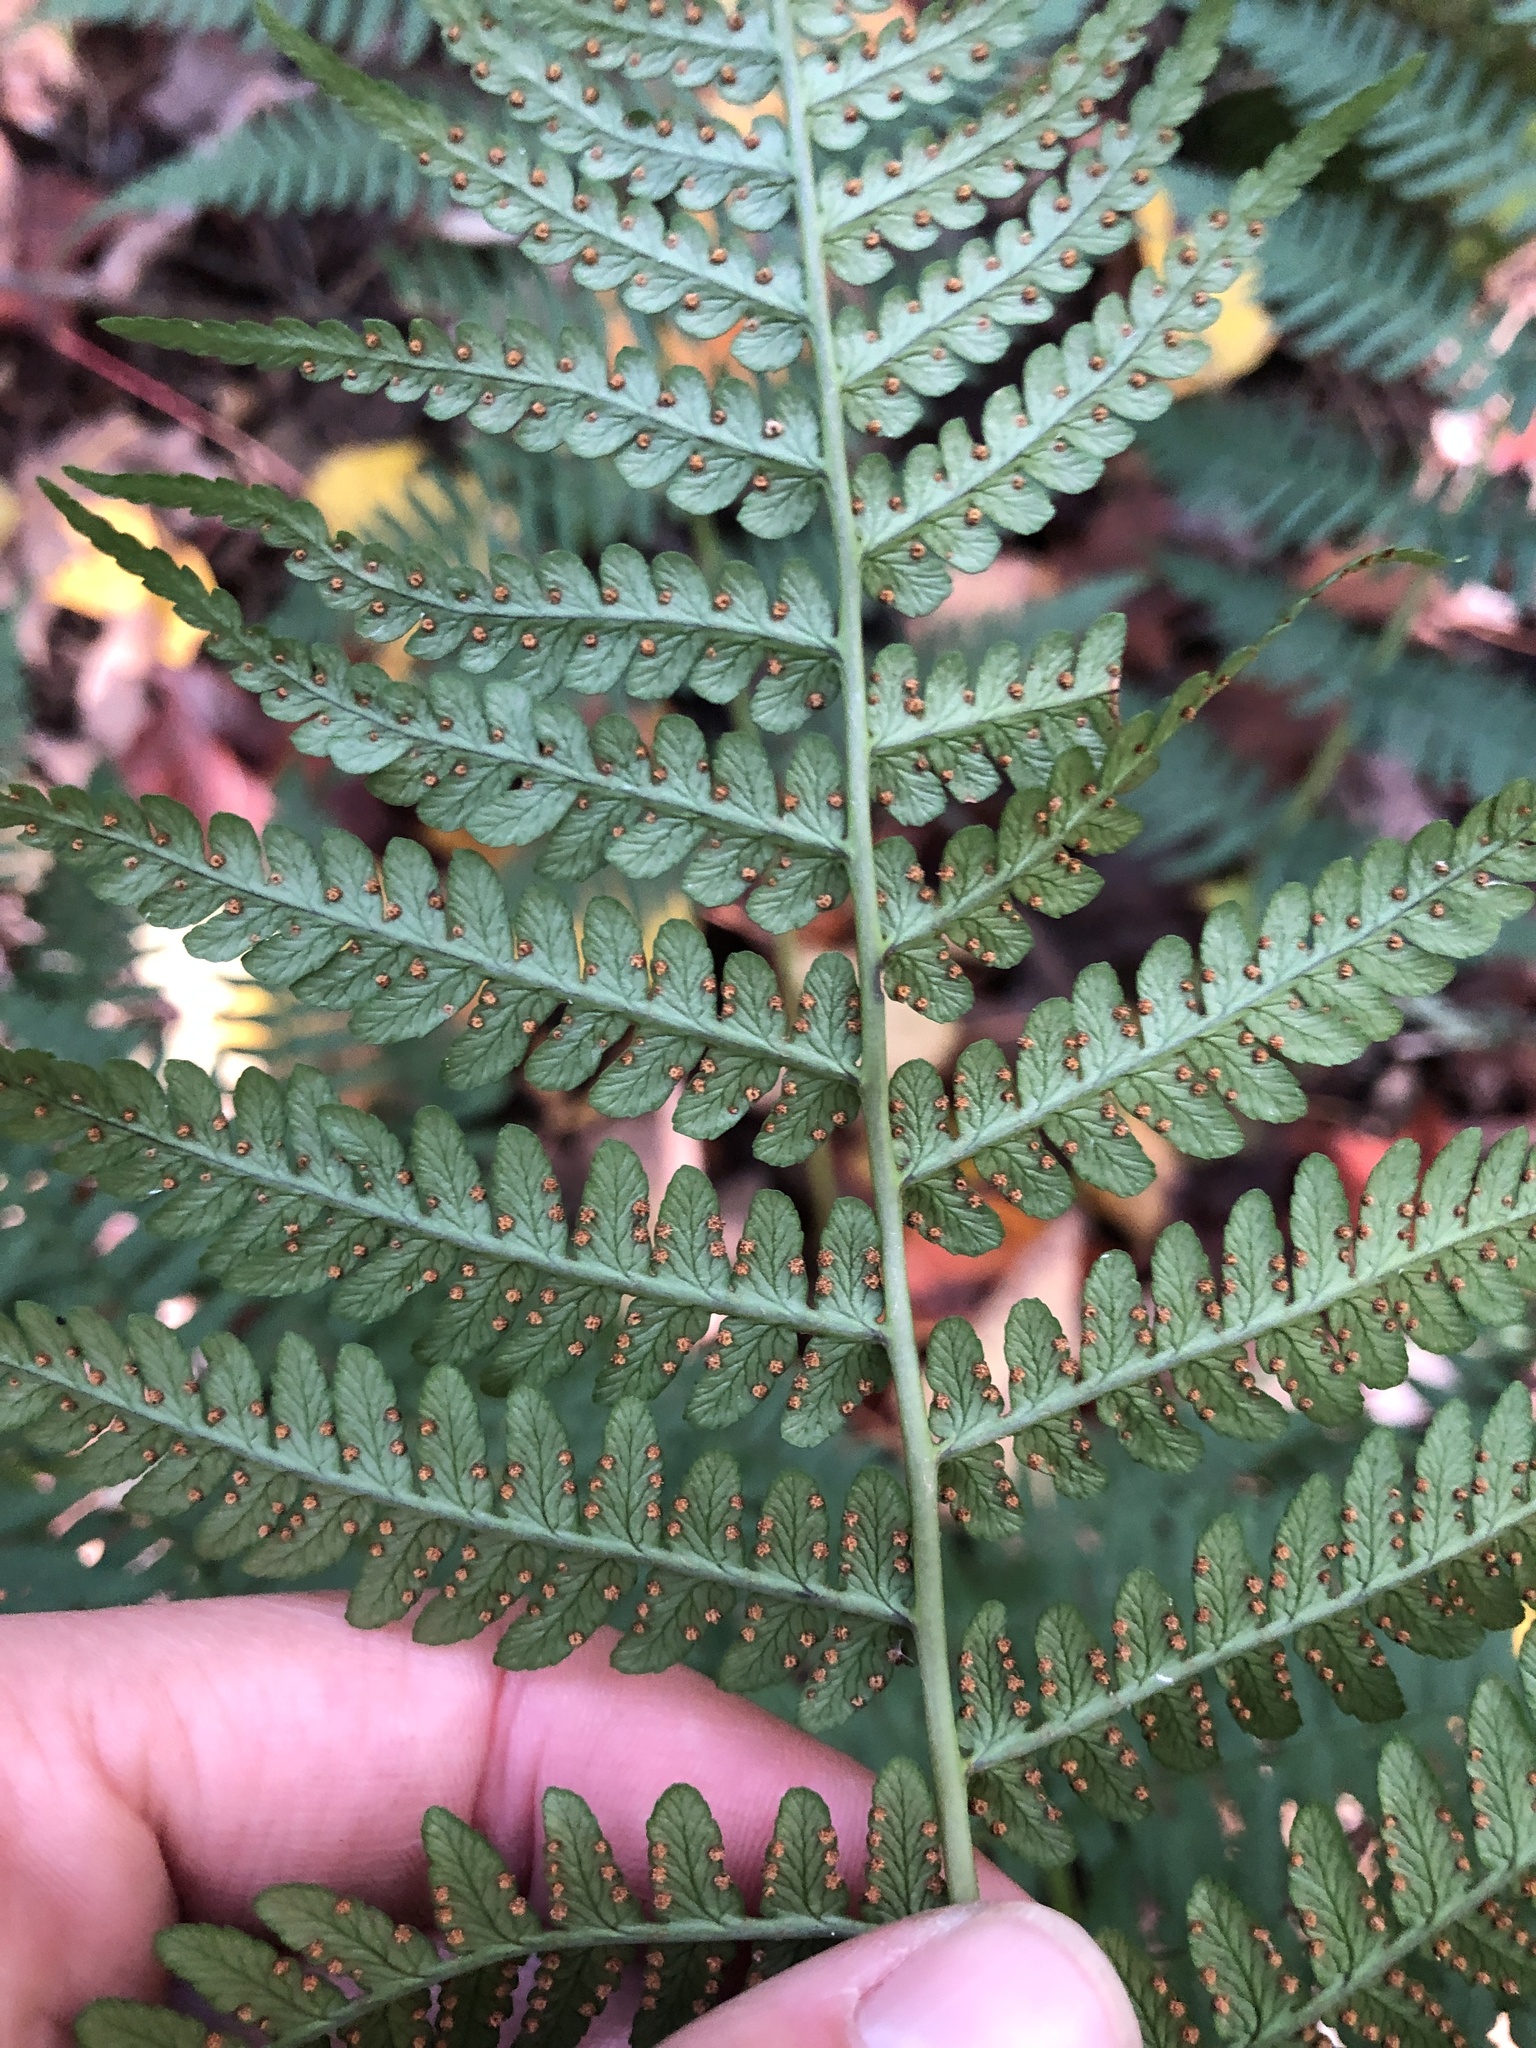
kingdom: Plantae
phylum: Tracheophyta
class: Polypodiopsida
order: Polypodiales
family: Dryopteridaceae
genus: Dryopteris
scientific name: Dryopteris marginalis
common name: Marginal wood fern
